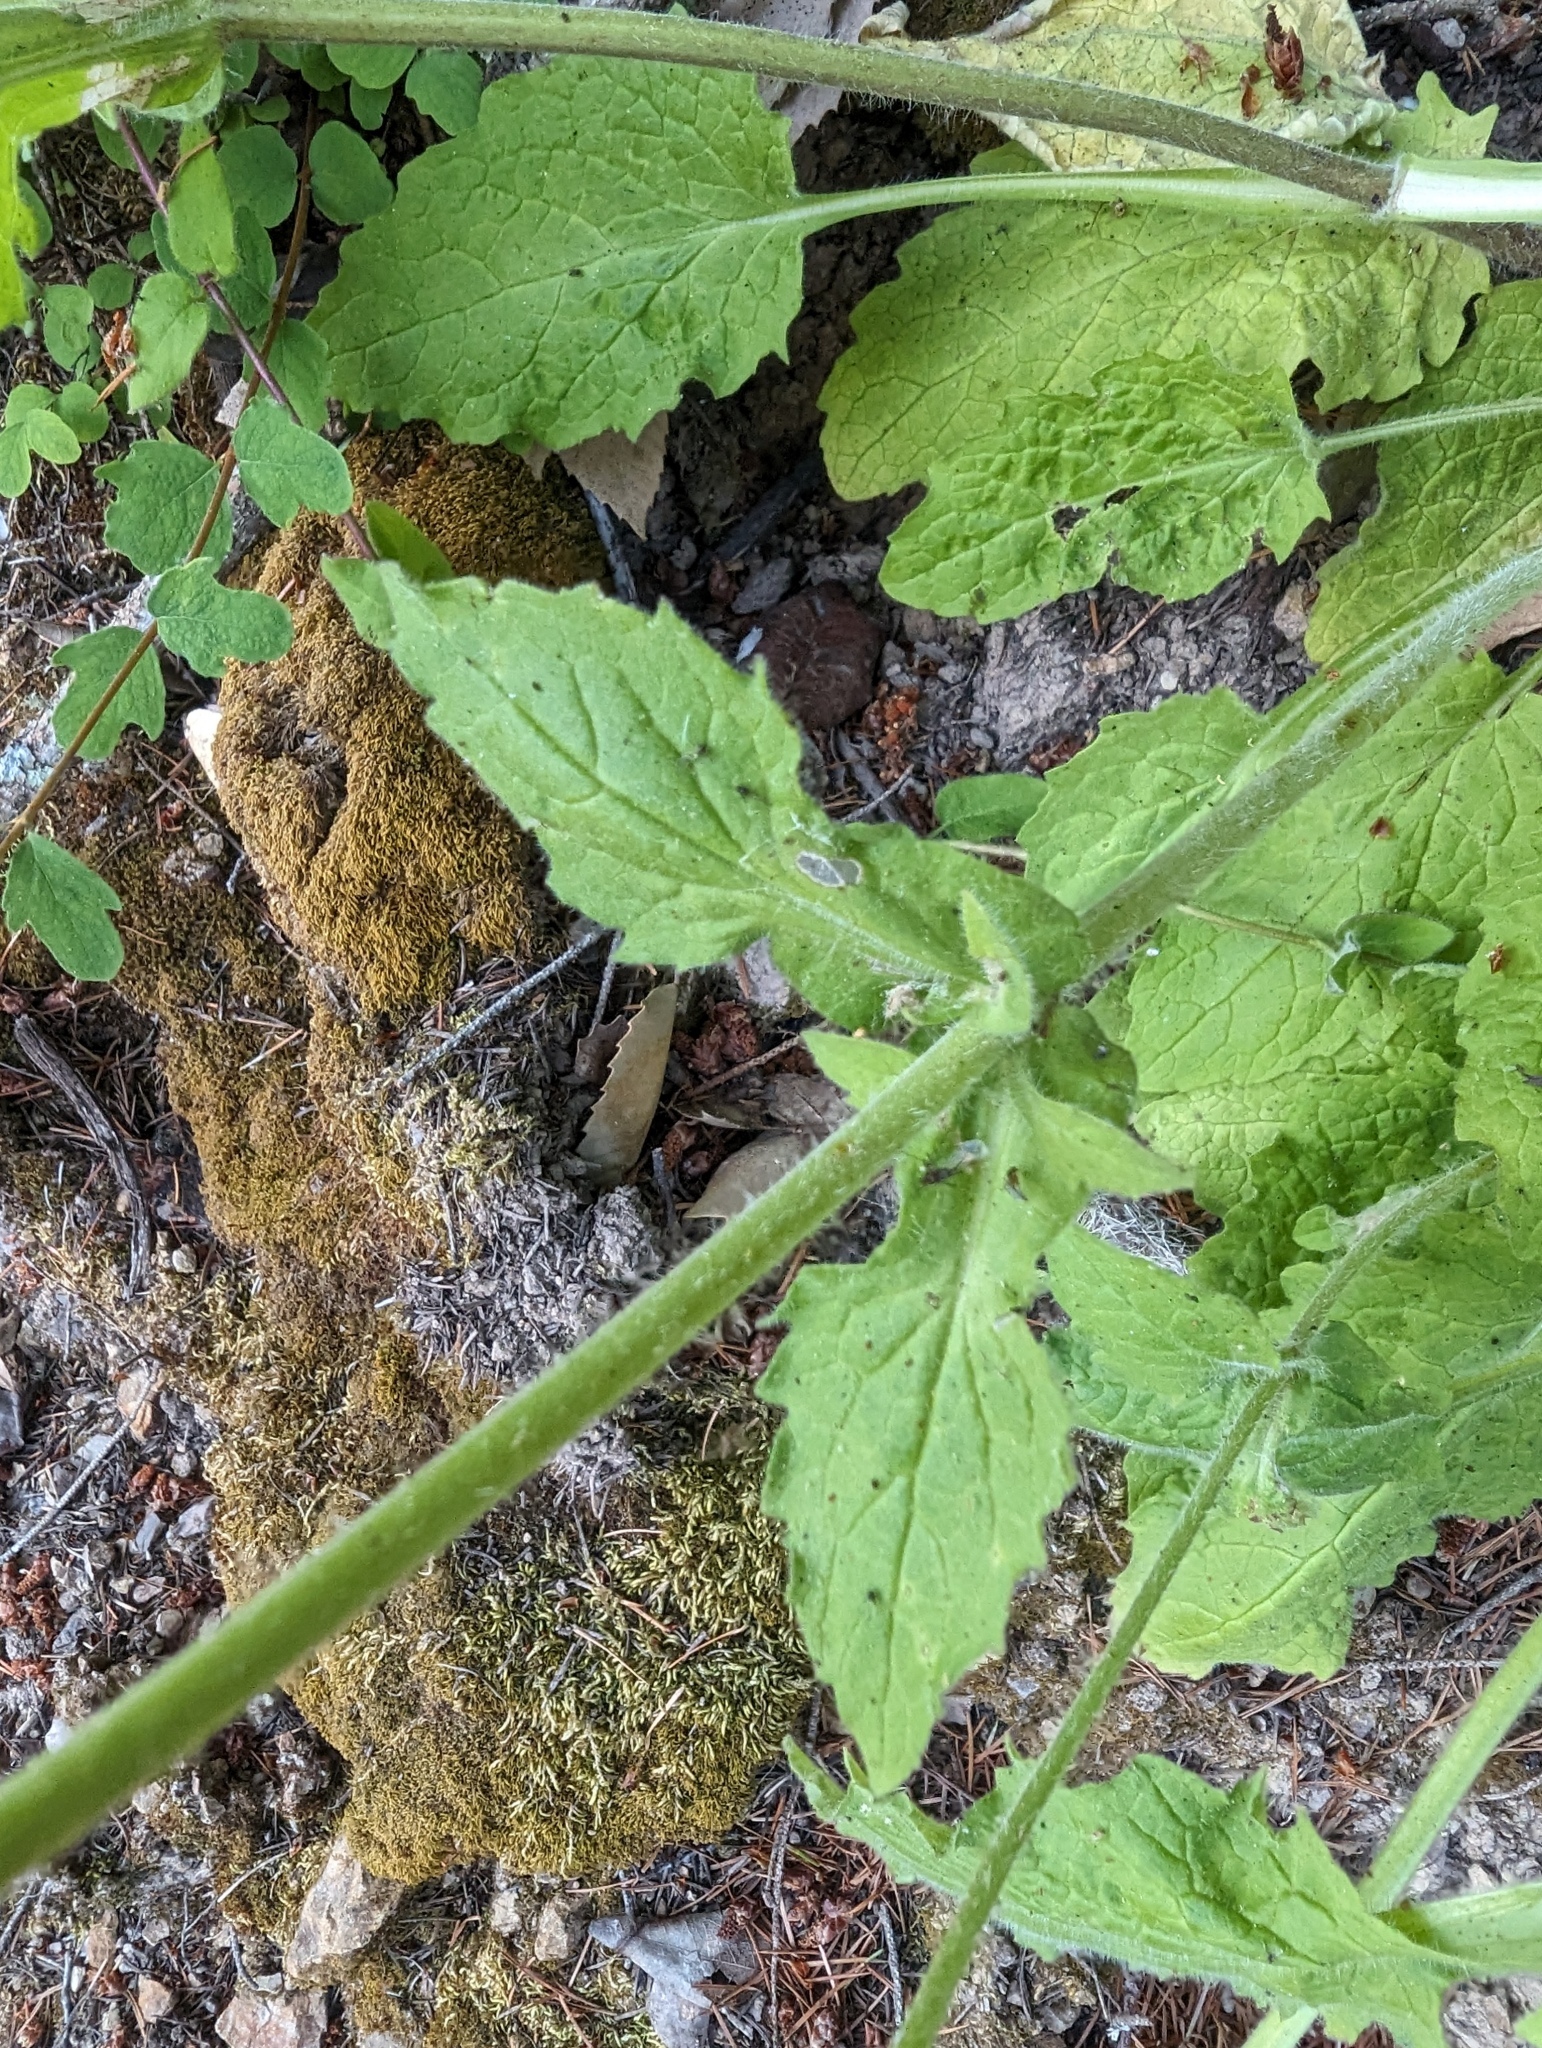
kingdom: Plantae
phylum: Tracheophyta
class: Magnoliopsida
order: Asterales
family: Asteraceae
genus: Arnica
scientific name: Arnica discoidea
